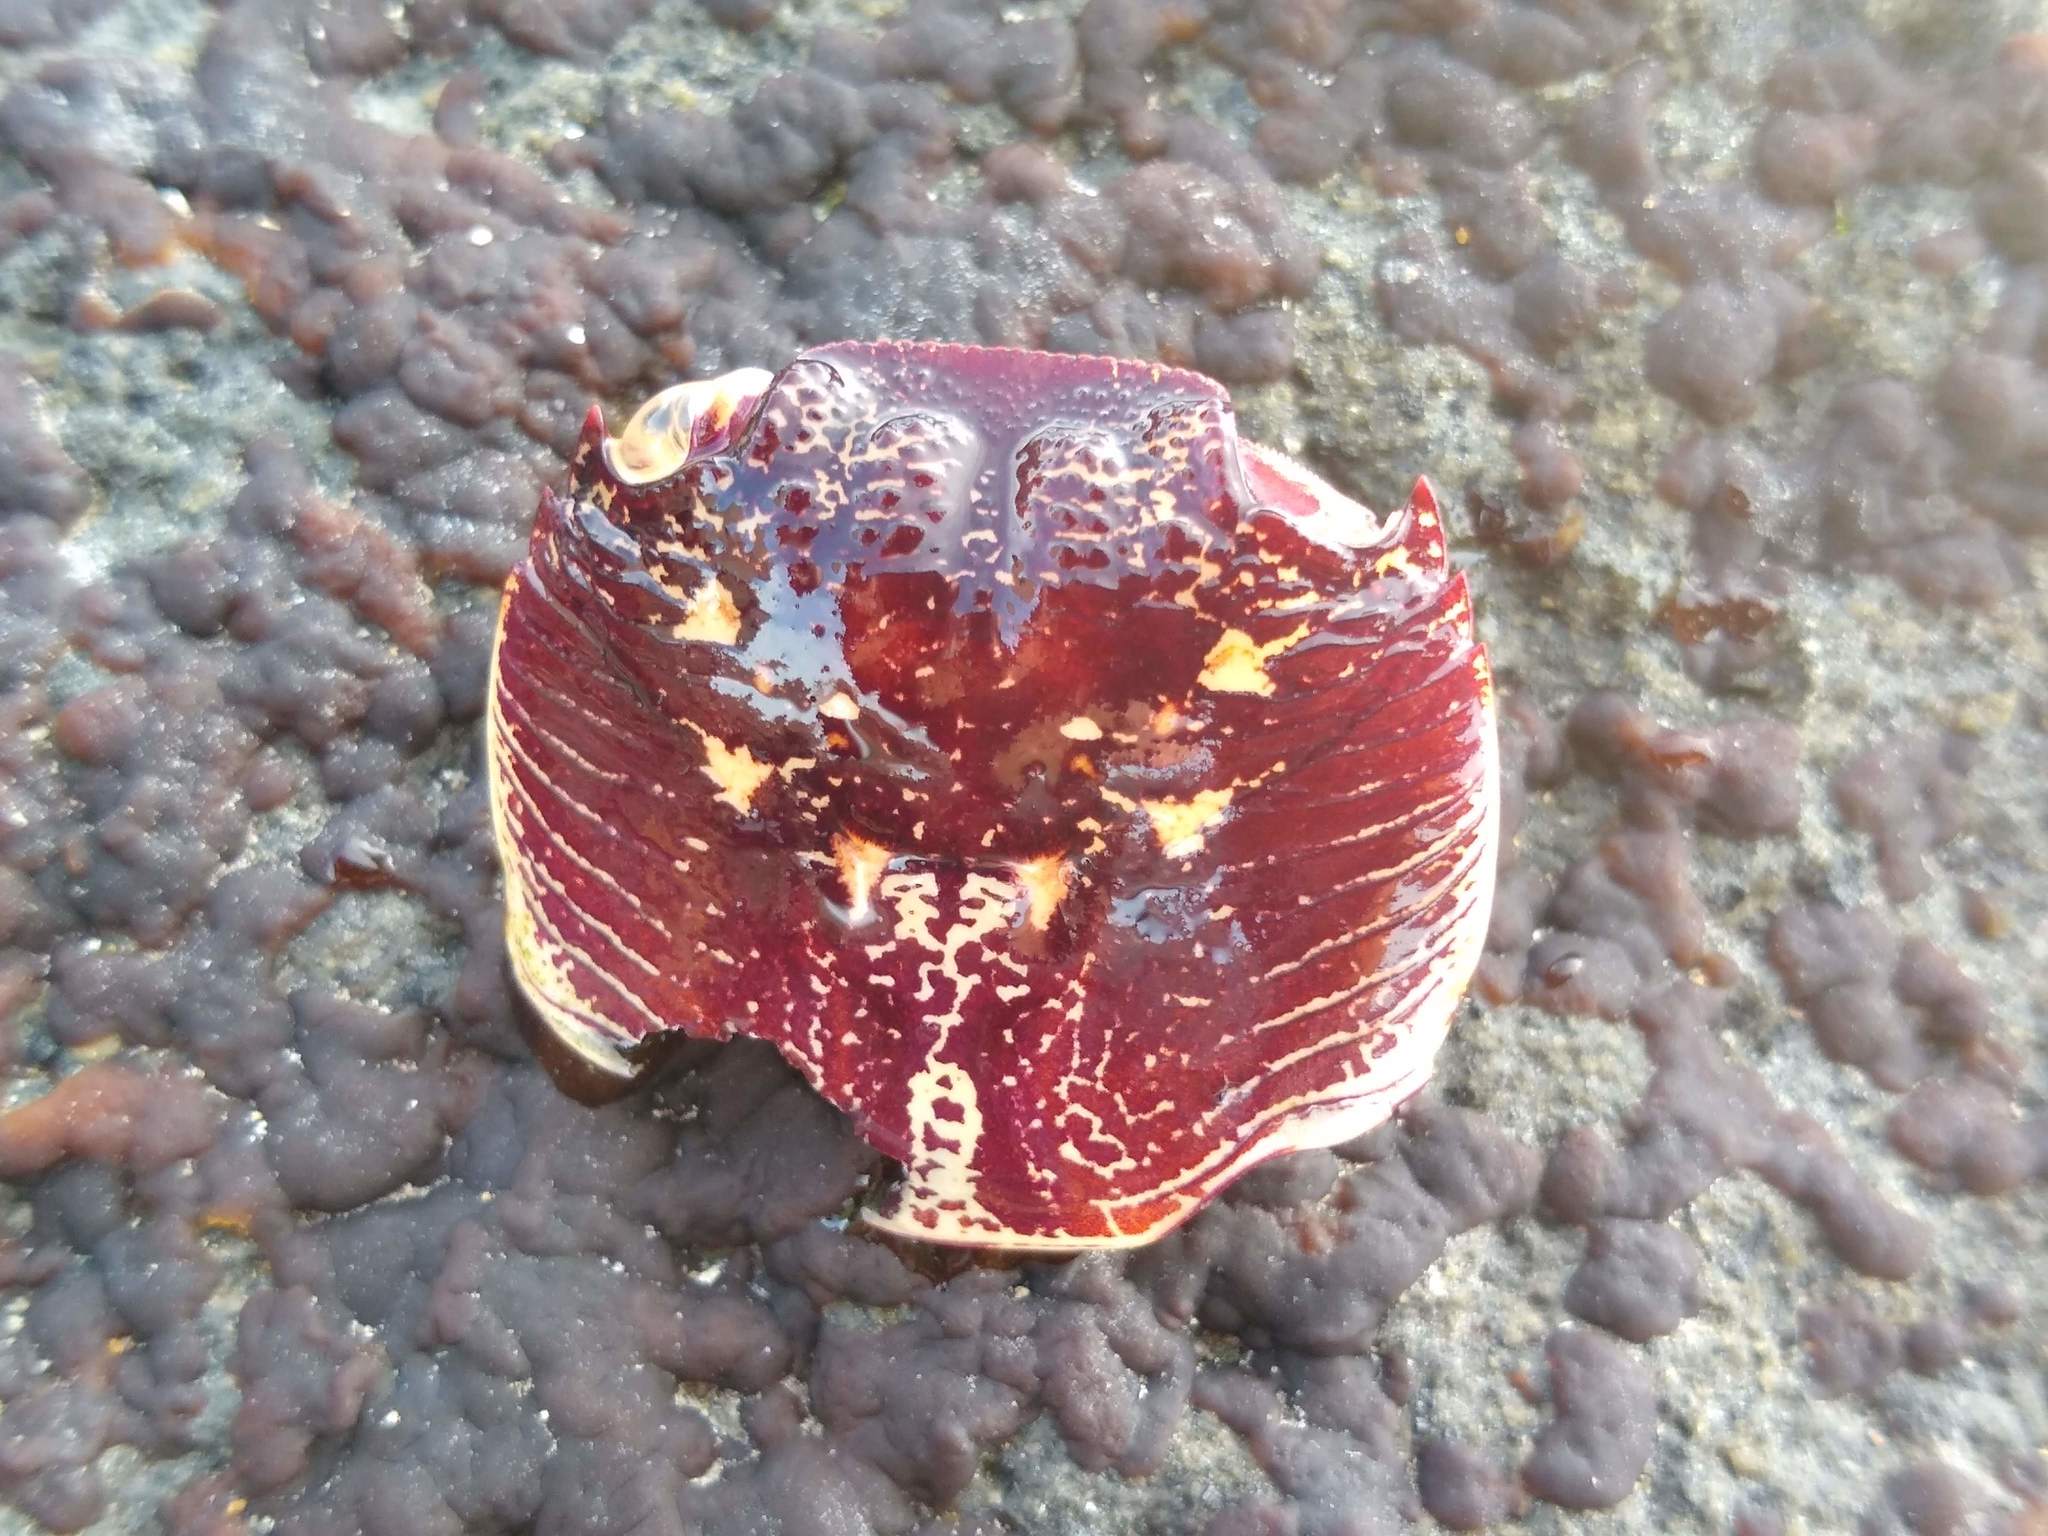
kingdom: Animalia
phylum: Arthropoda
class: Malacostraca
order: Decapoda
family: Grapsidae
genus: Leptograpsus
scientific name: Leptograpsus variegatus
